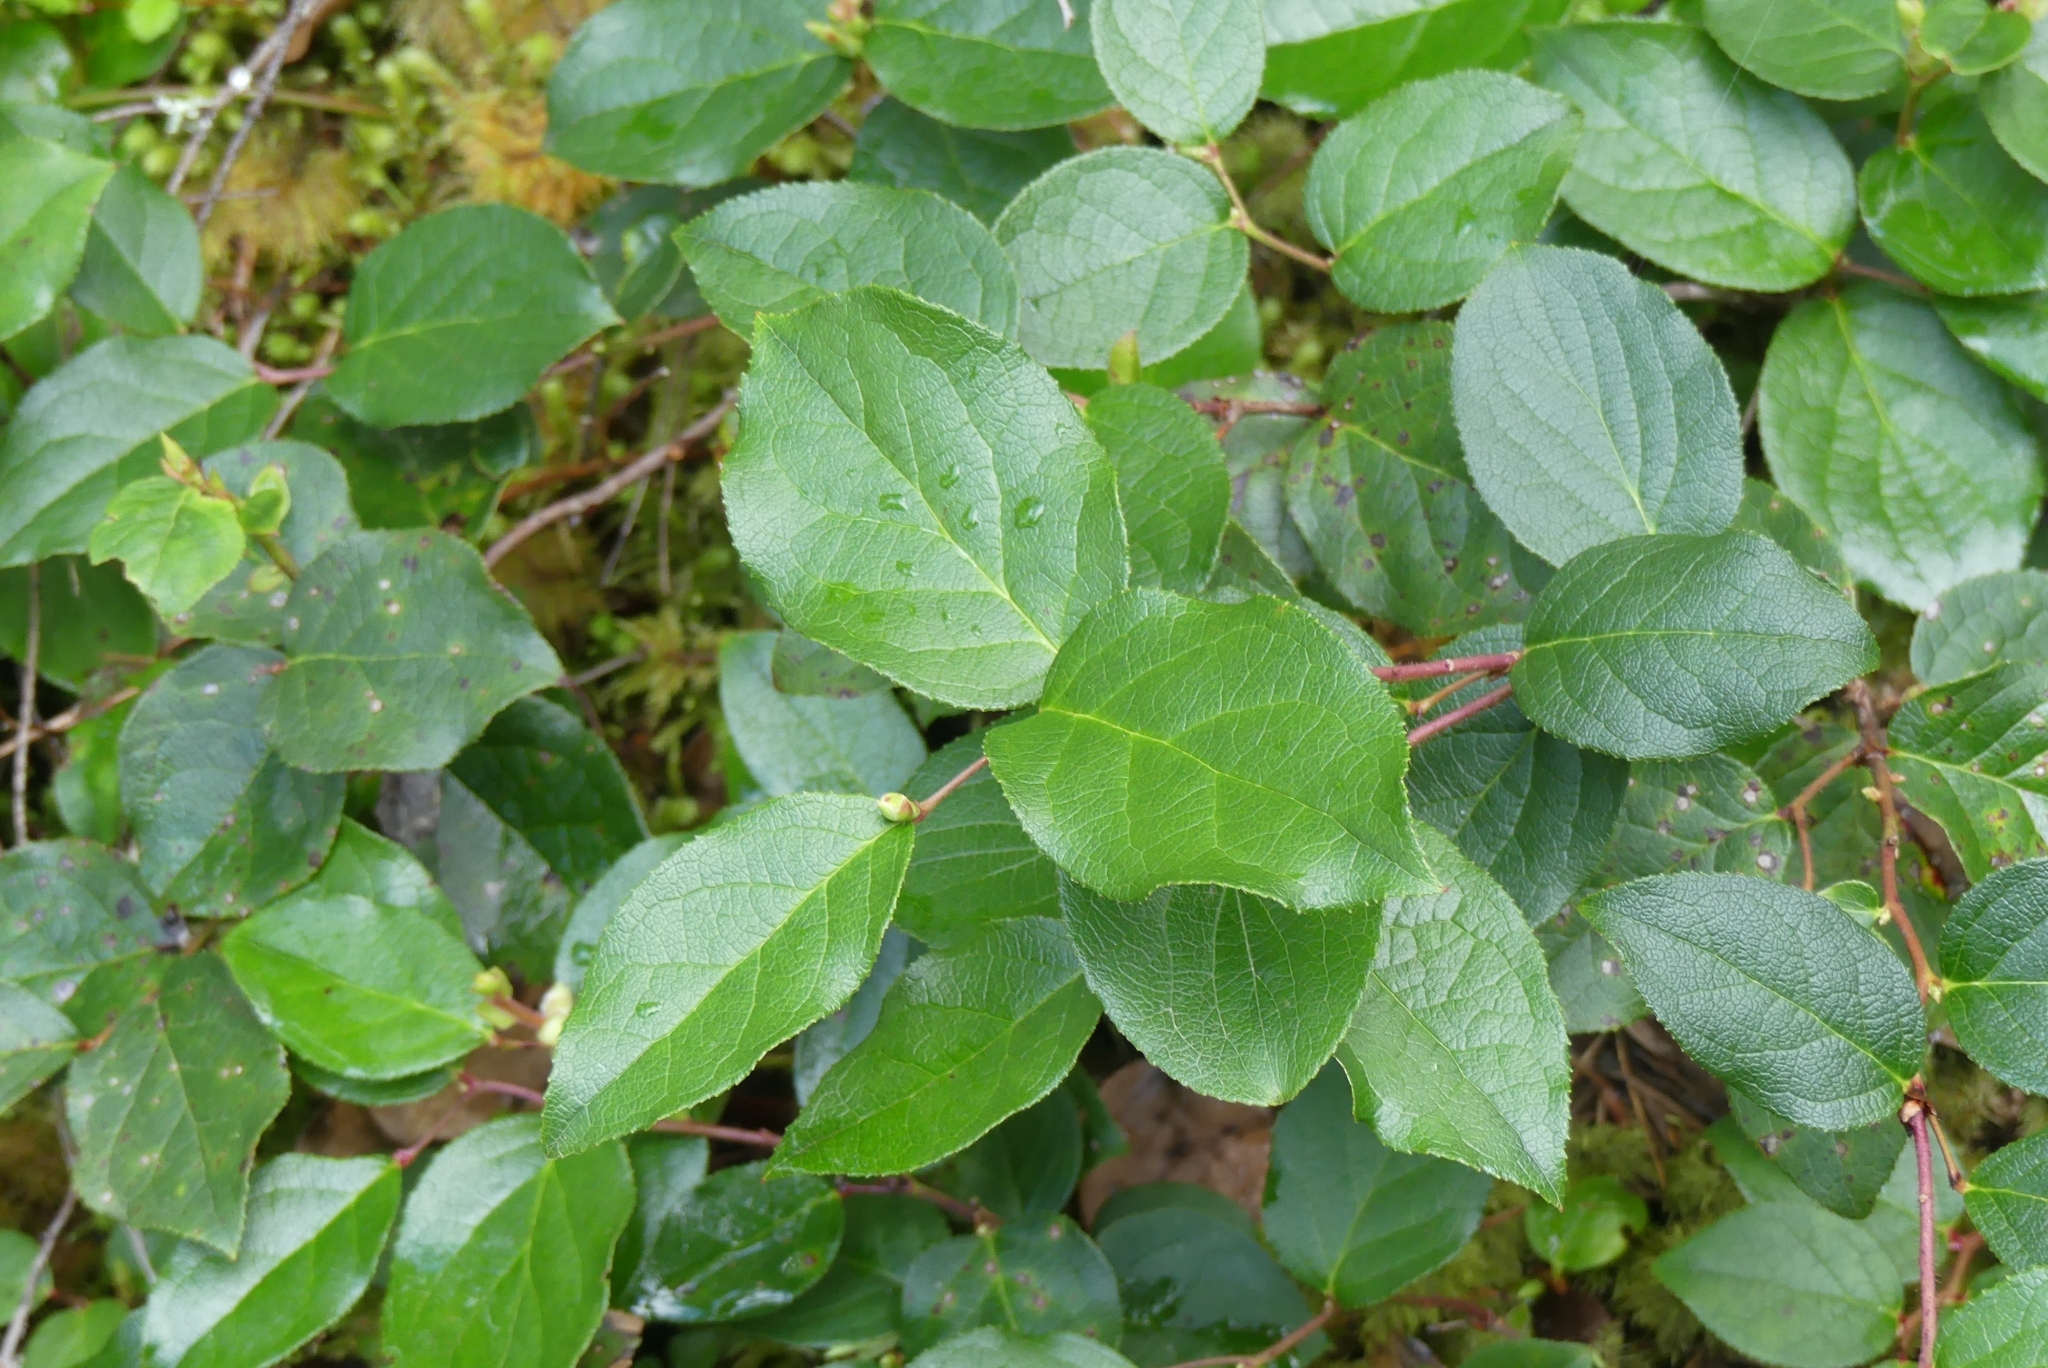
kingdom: Plantae
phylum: Tracheophyta
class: Magnoliopsida
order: Ericales
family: Ericaceae
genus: Gaultheria
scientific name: Gaultheria shallon
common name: Shallon
